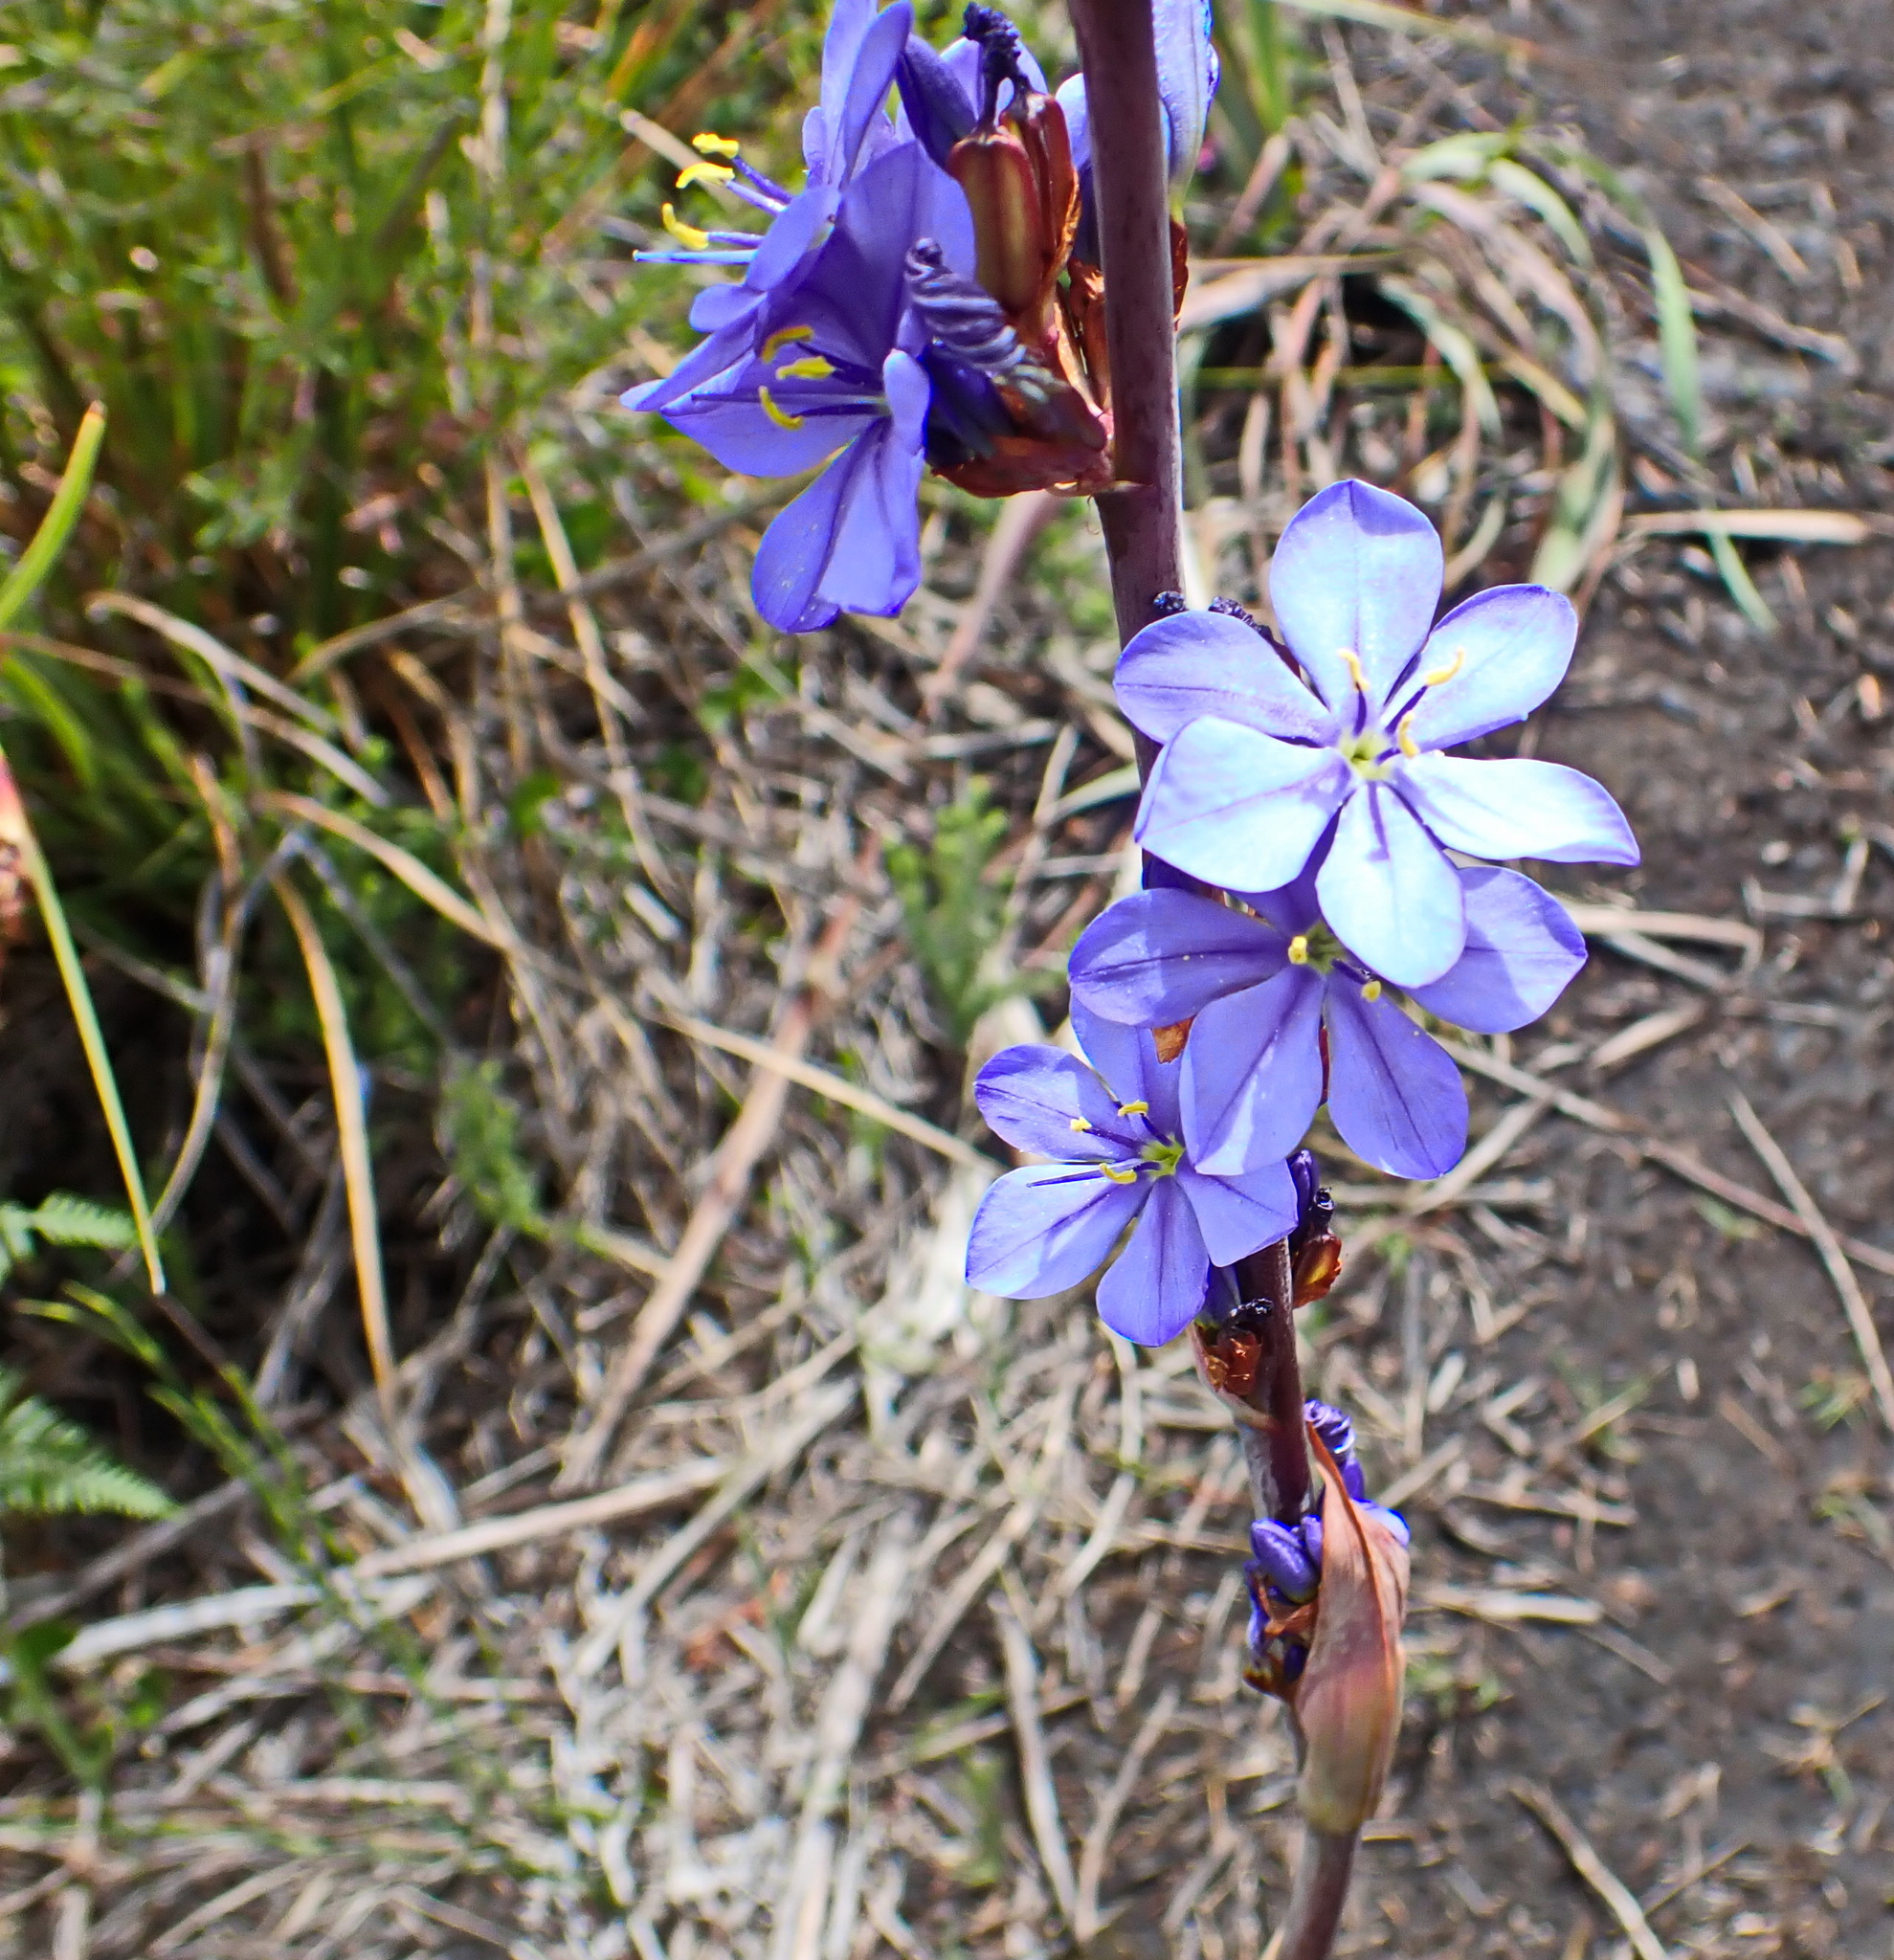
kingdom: Plantae
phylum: Tracheophyta
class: Liliopsida
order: Asparagales
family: Iridaceae
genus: Aristea
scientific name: Aristea bakeri
